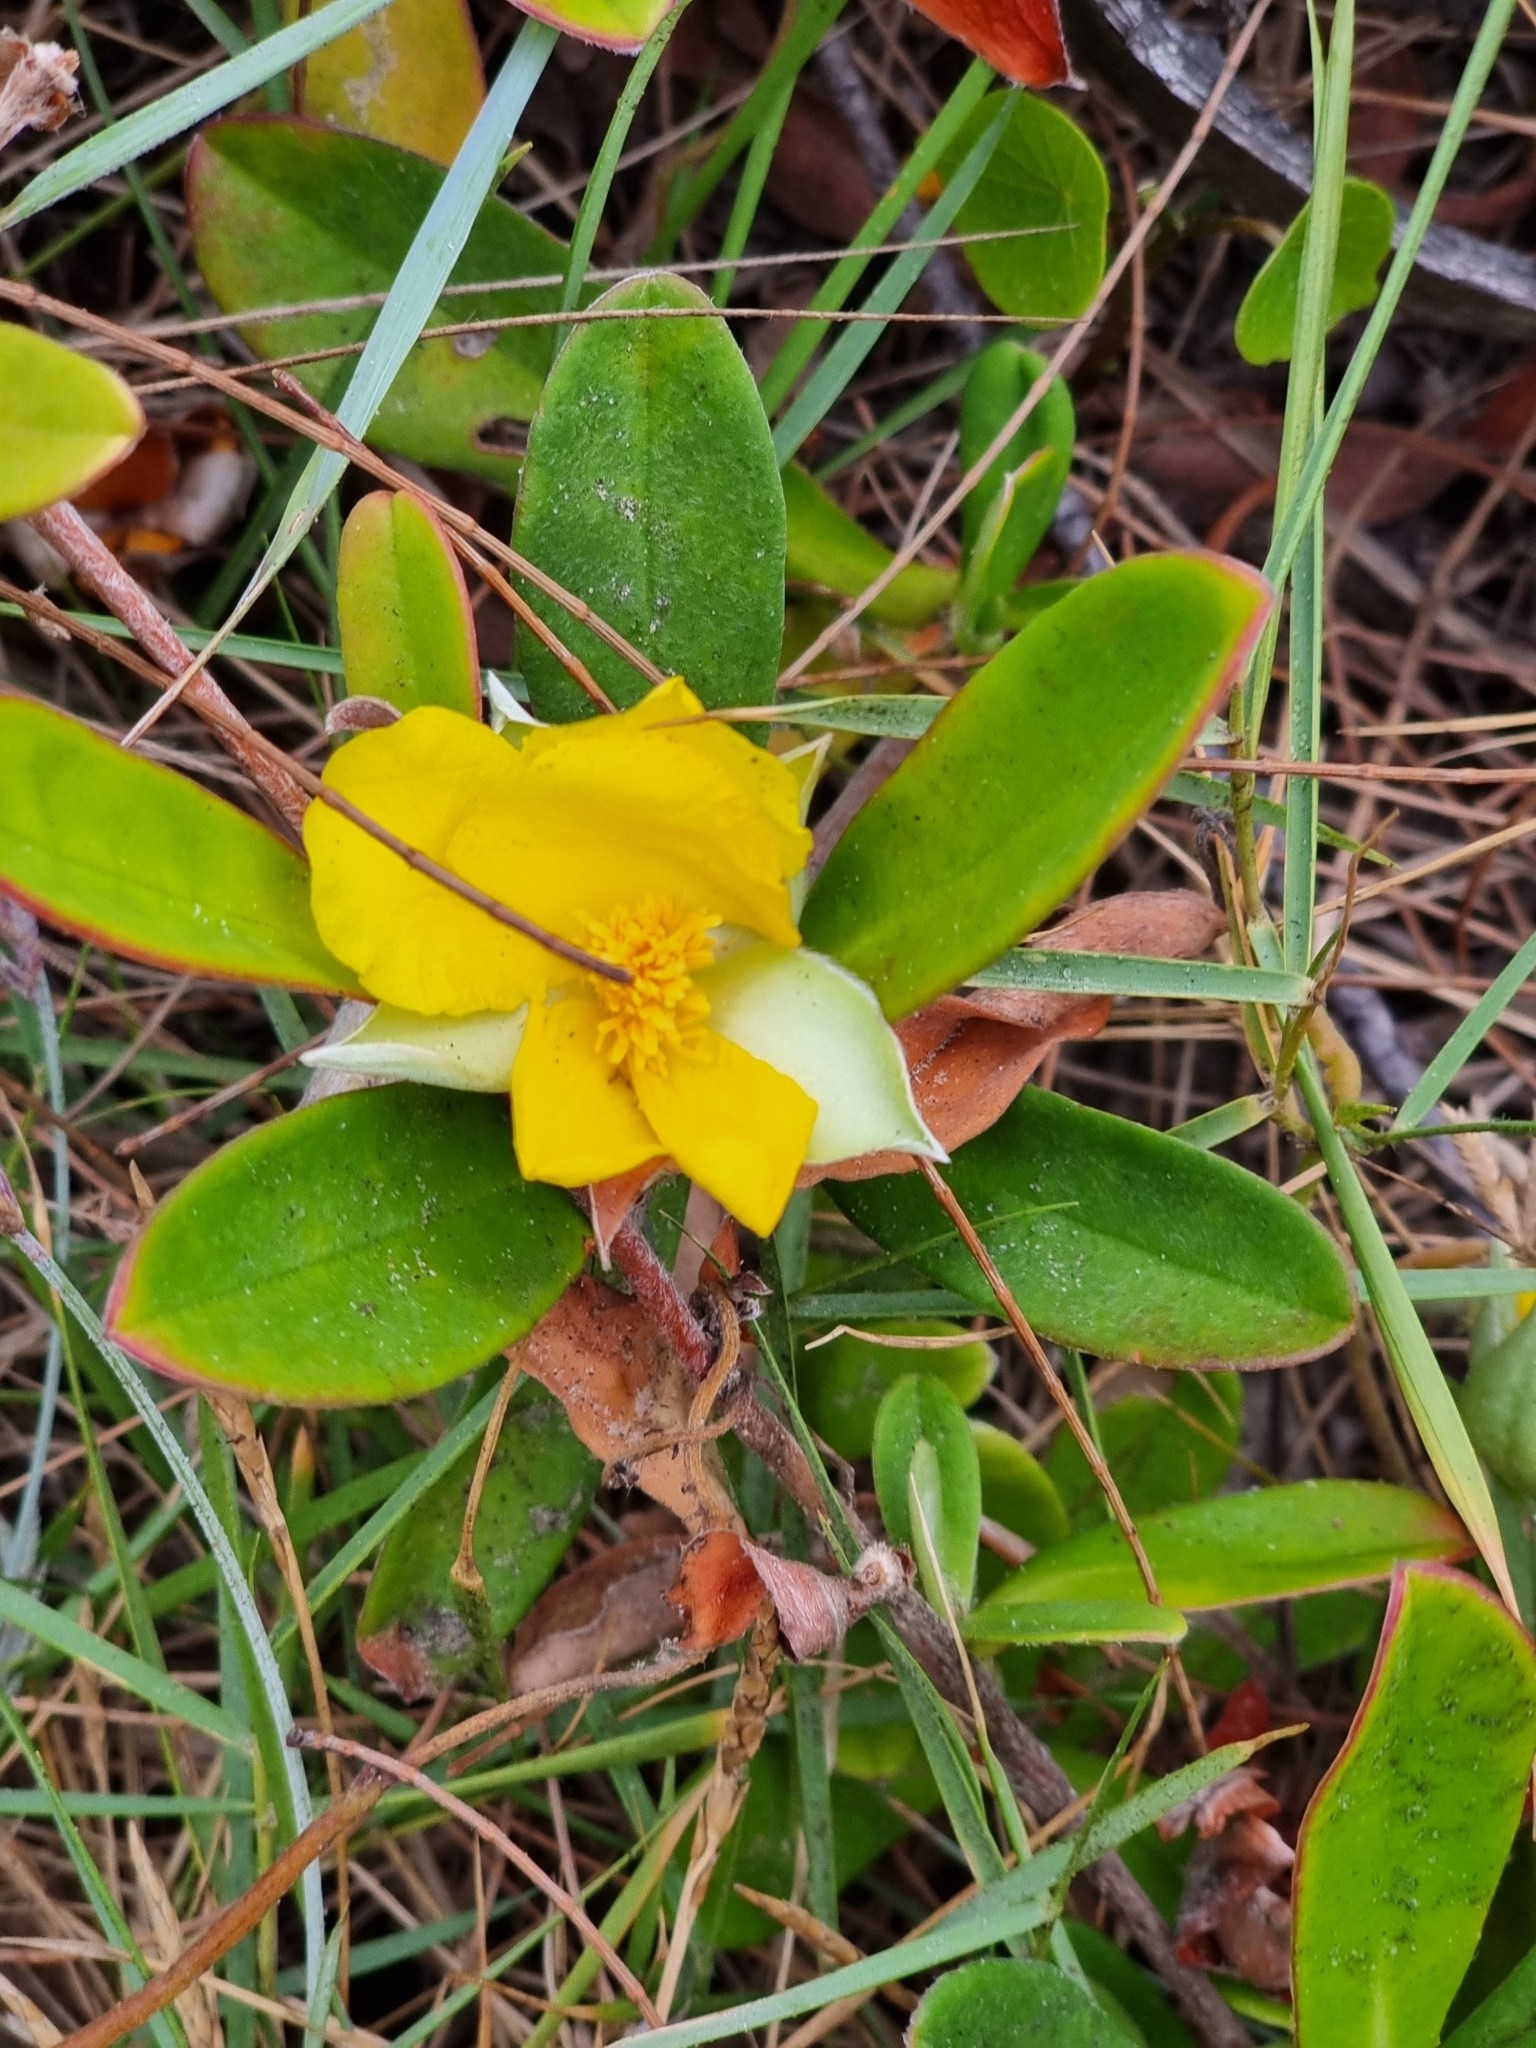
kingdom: Plantae
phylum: Tracheophyta
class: Magnoliopsida
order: Dilleniales
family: Dilleniaceae
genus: Hibbertia
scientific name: Hibbertia scandens
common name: Climbing guinea-flower
